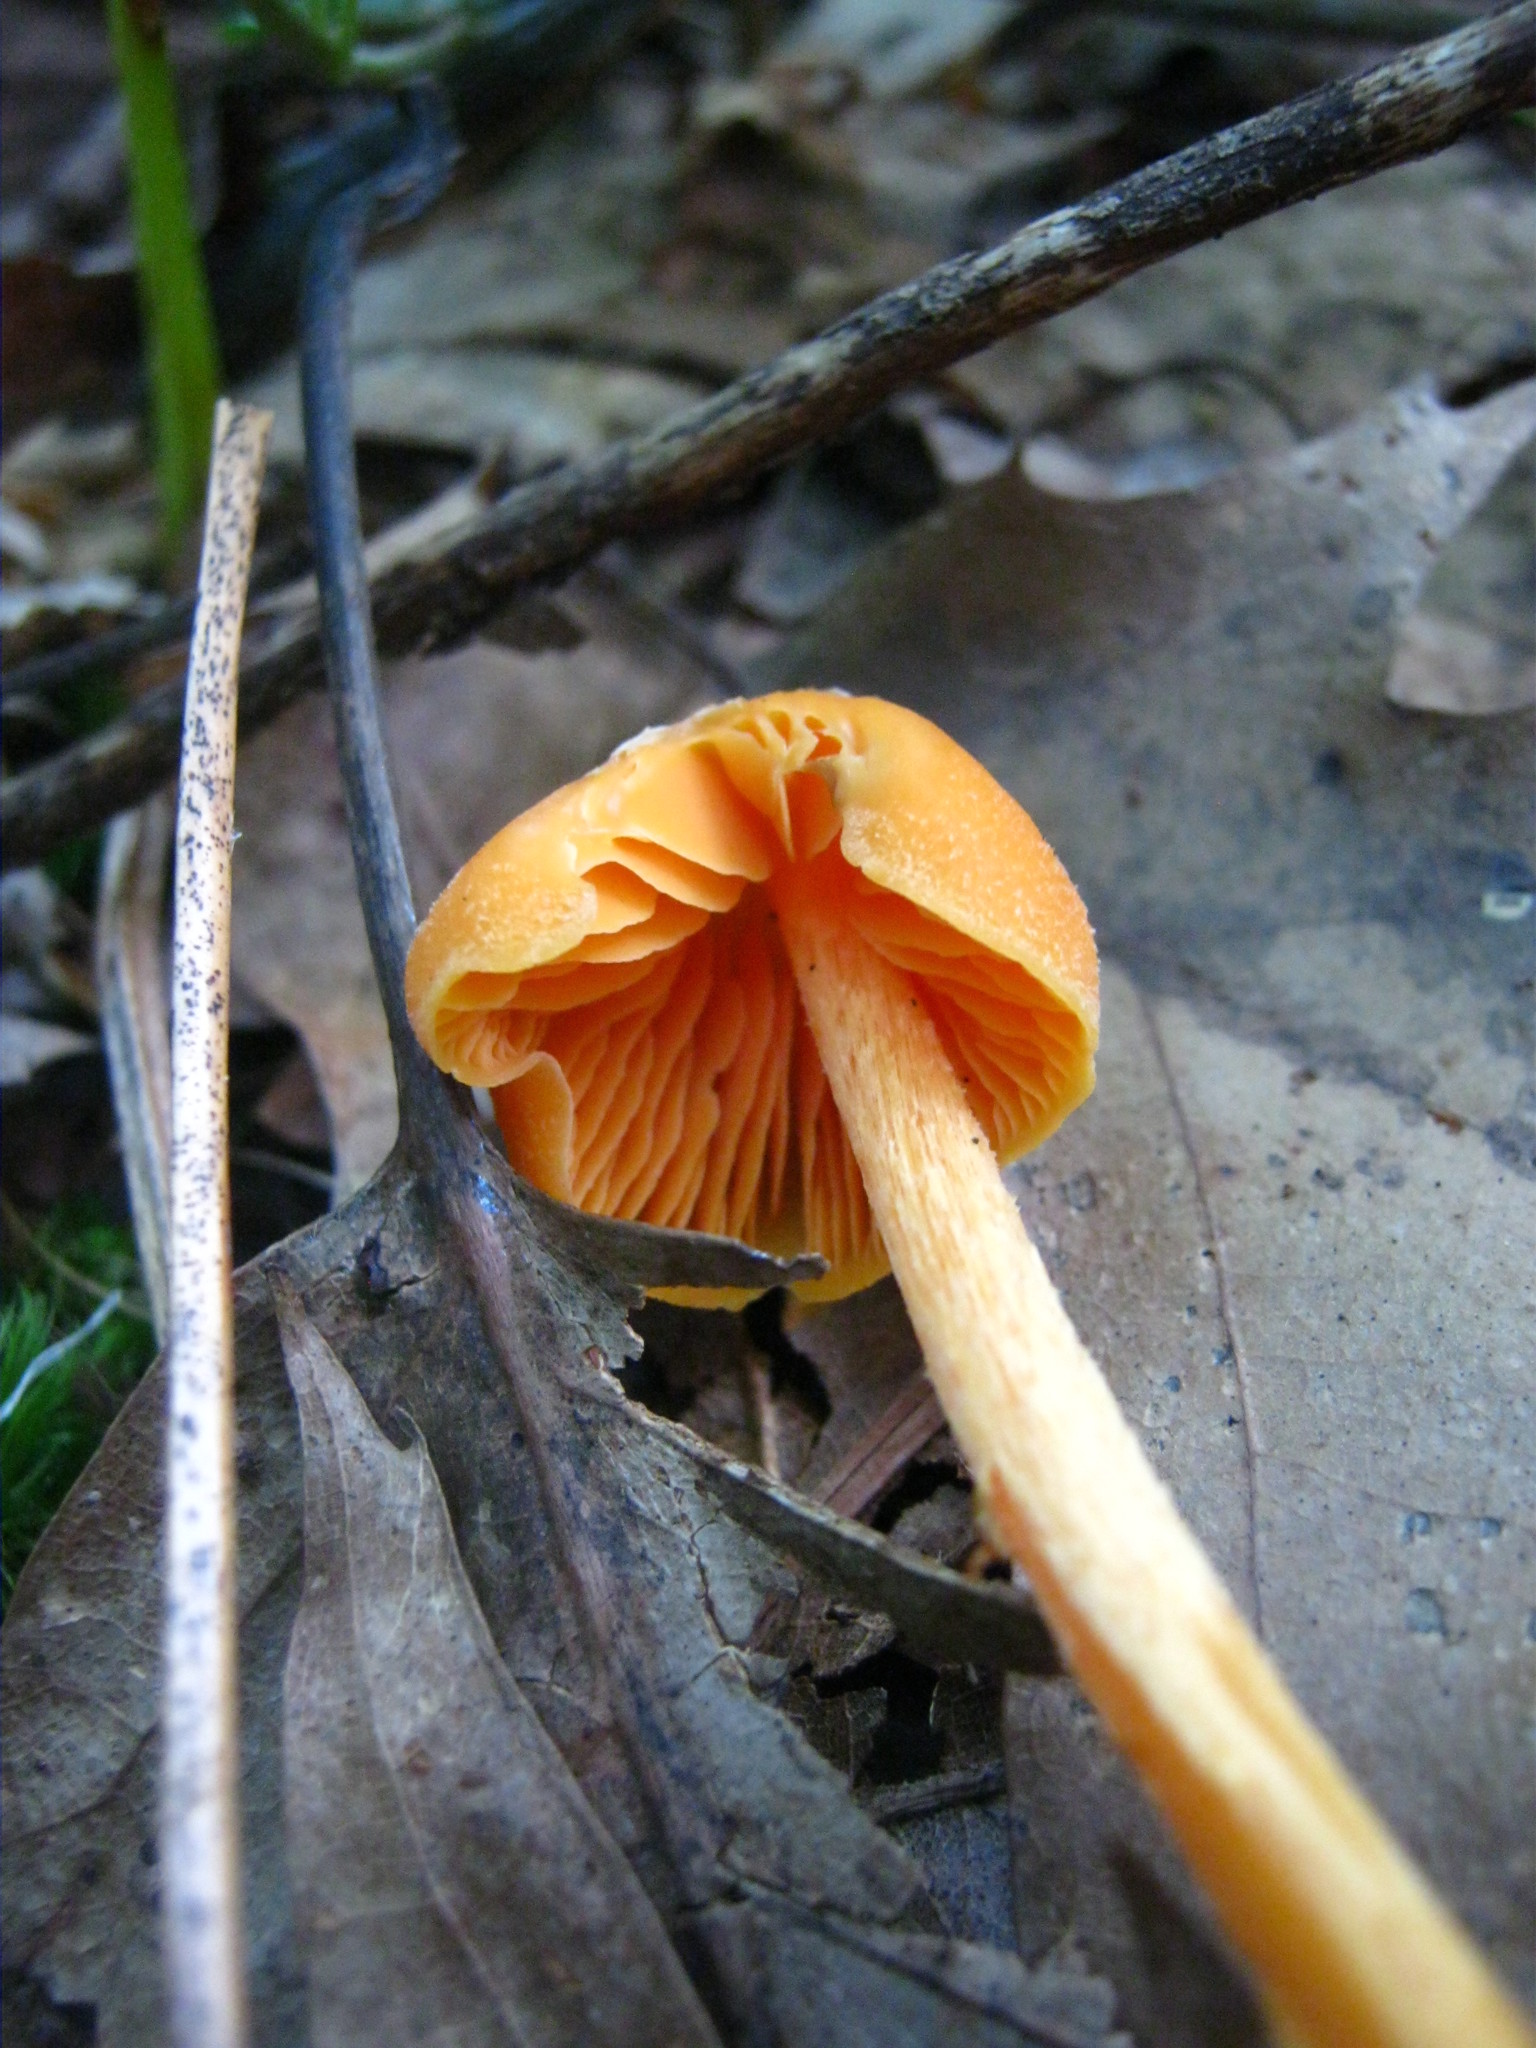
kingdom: Fungi
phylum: Basidiomycota
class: Agaricomycetes
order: Agaricales
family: Entolomataceae
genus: Entoloma
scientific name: Entoloma quadratum
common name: Salmon pinkgill
